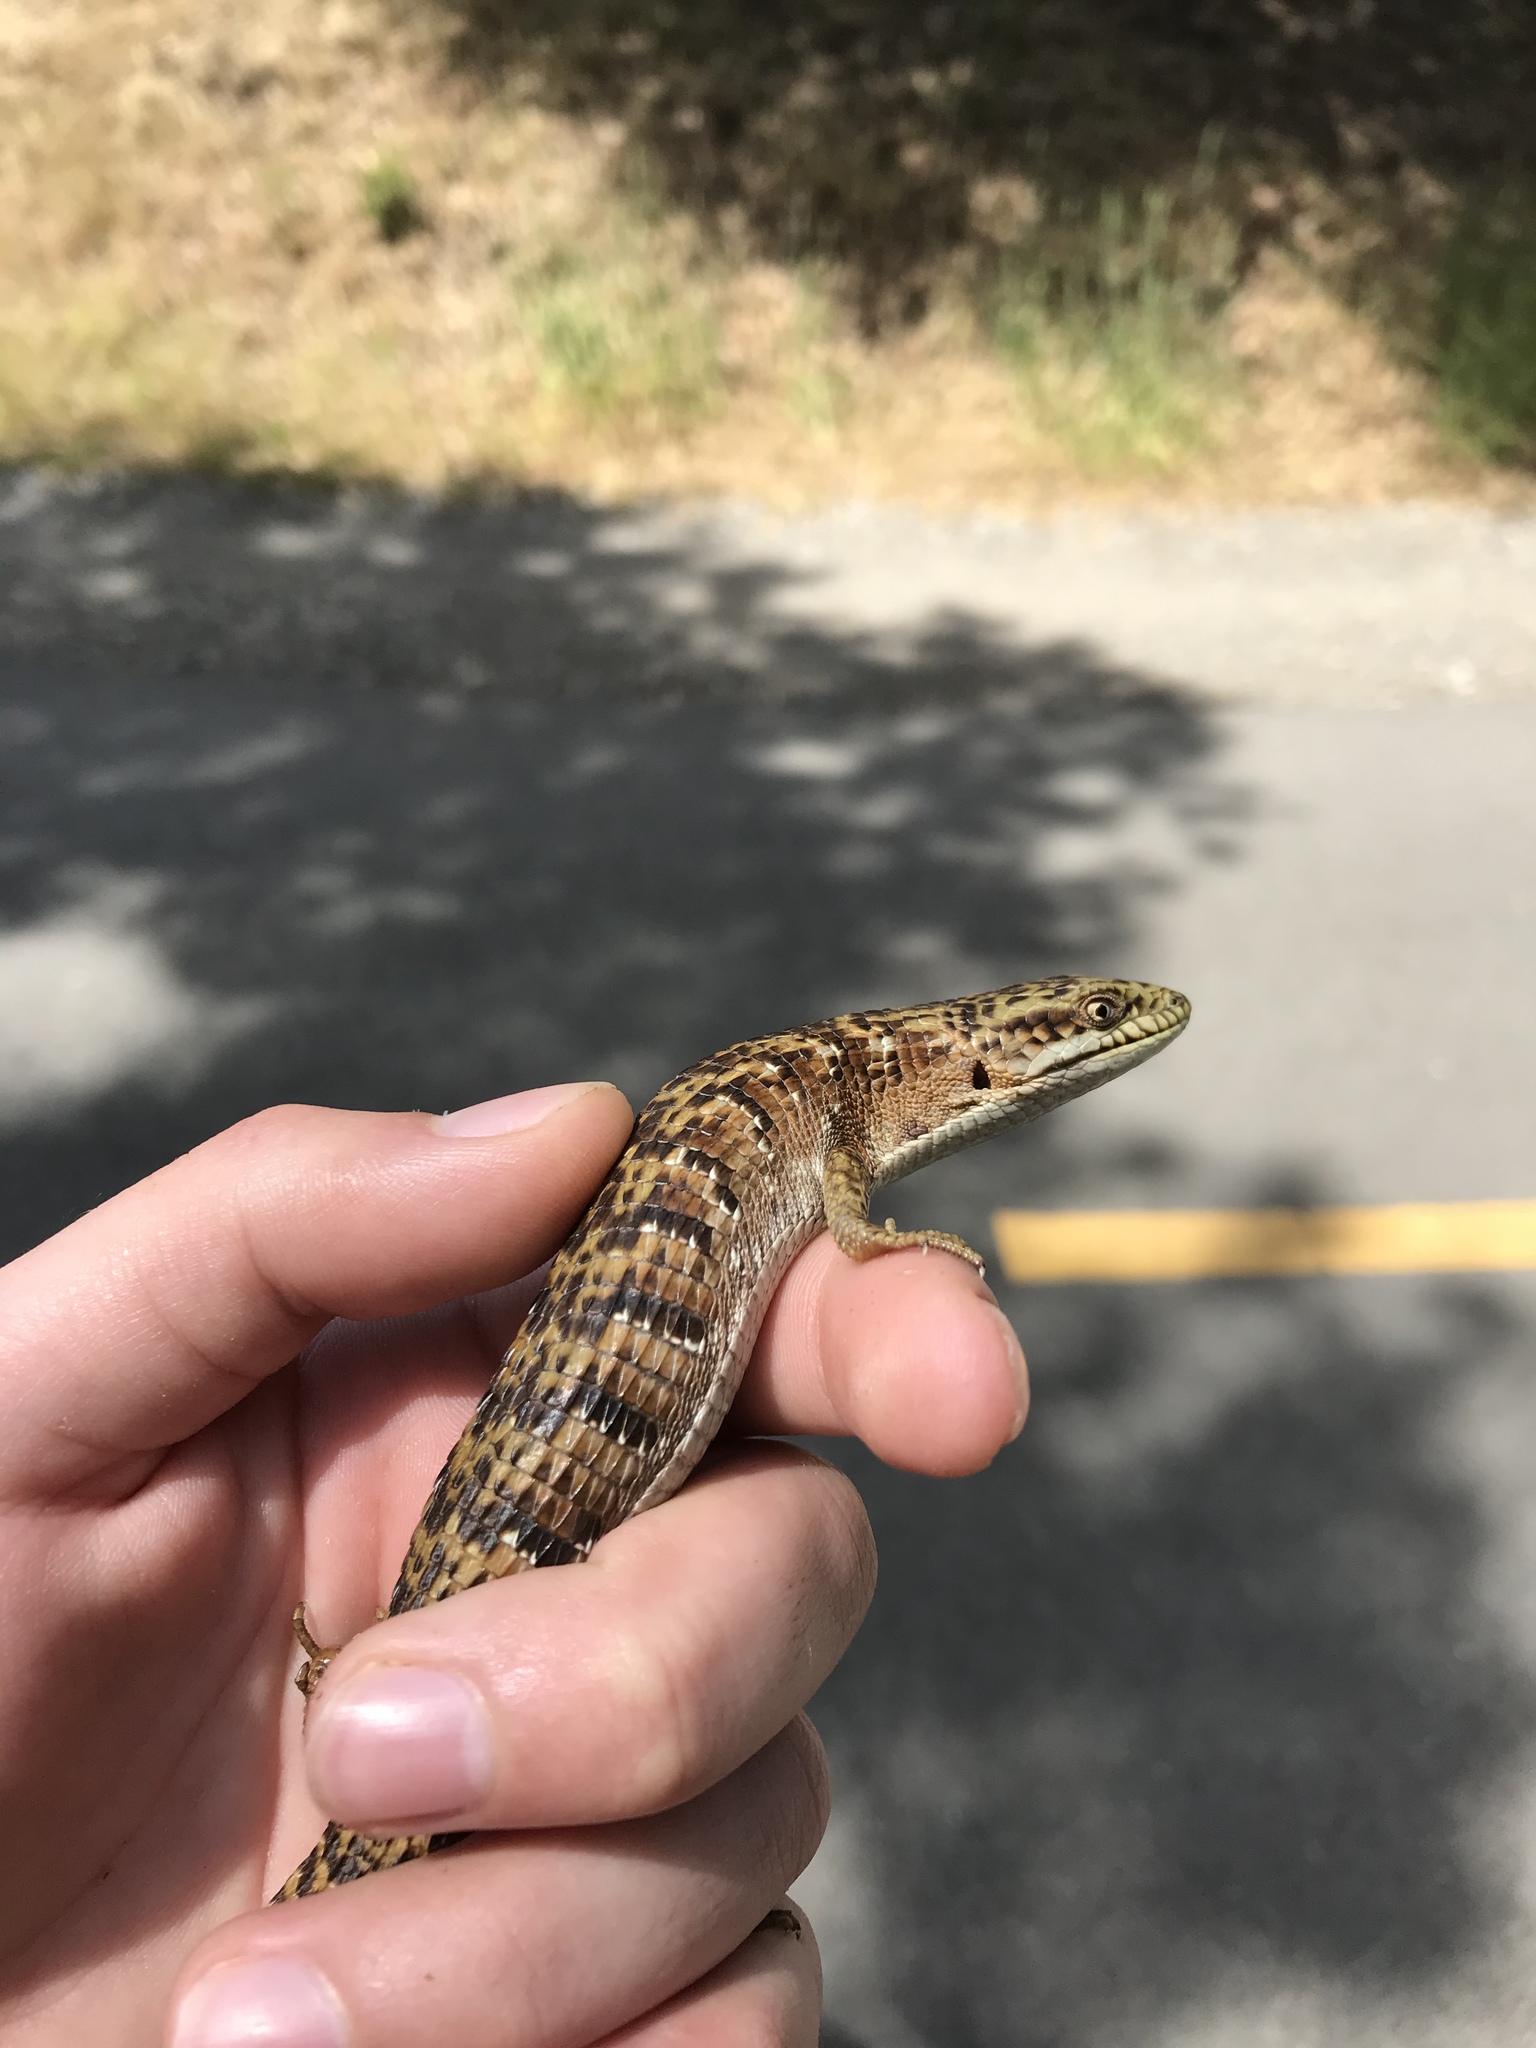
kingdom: Animalia
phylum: Chordata
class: Squamata
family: Anguidae
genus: Elgaria
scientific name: Elgaria multicarinata
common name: Southern alligator lizard
